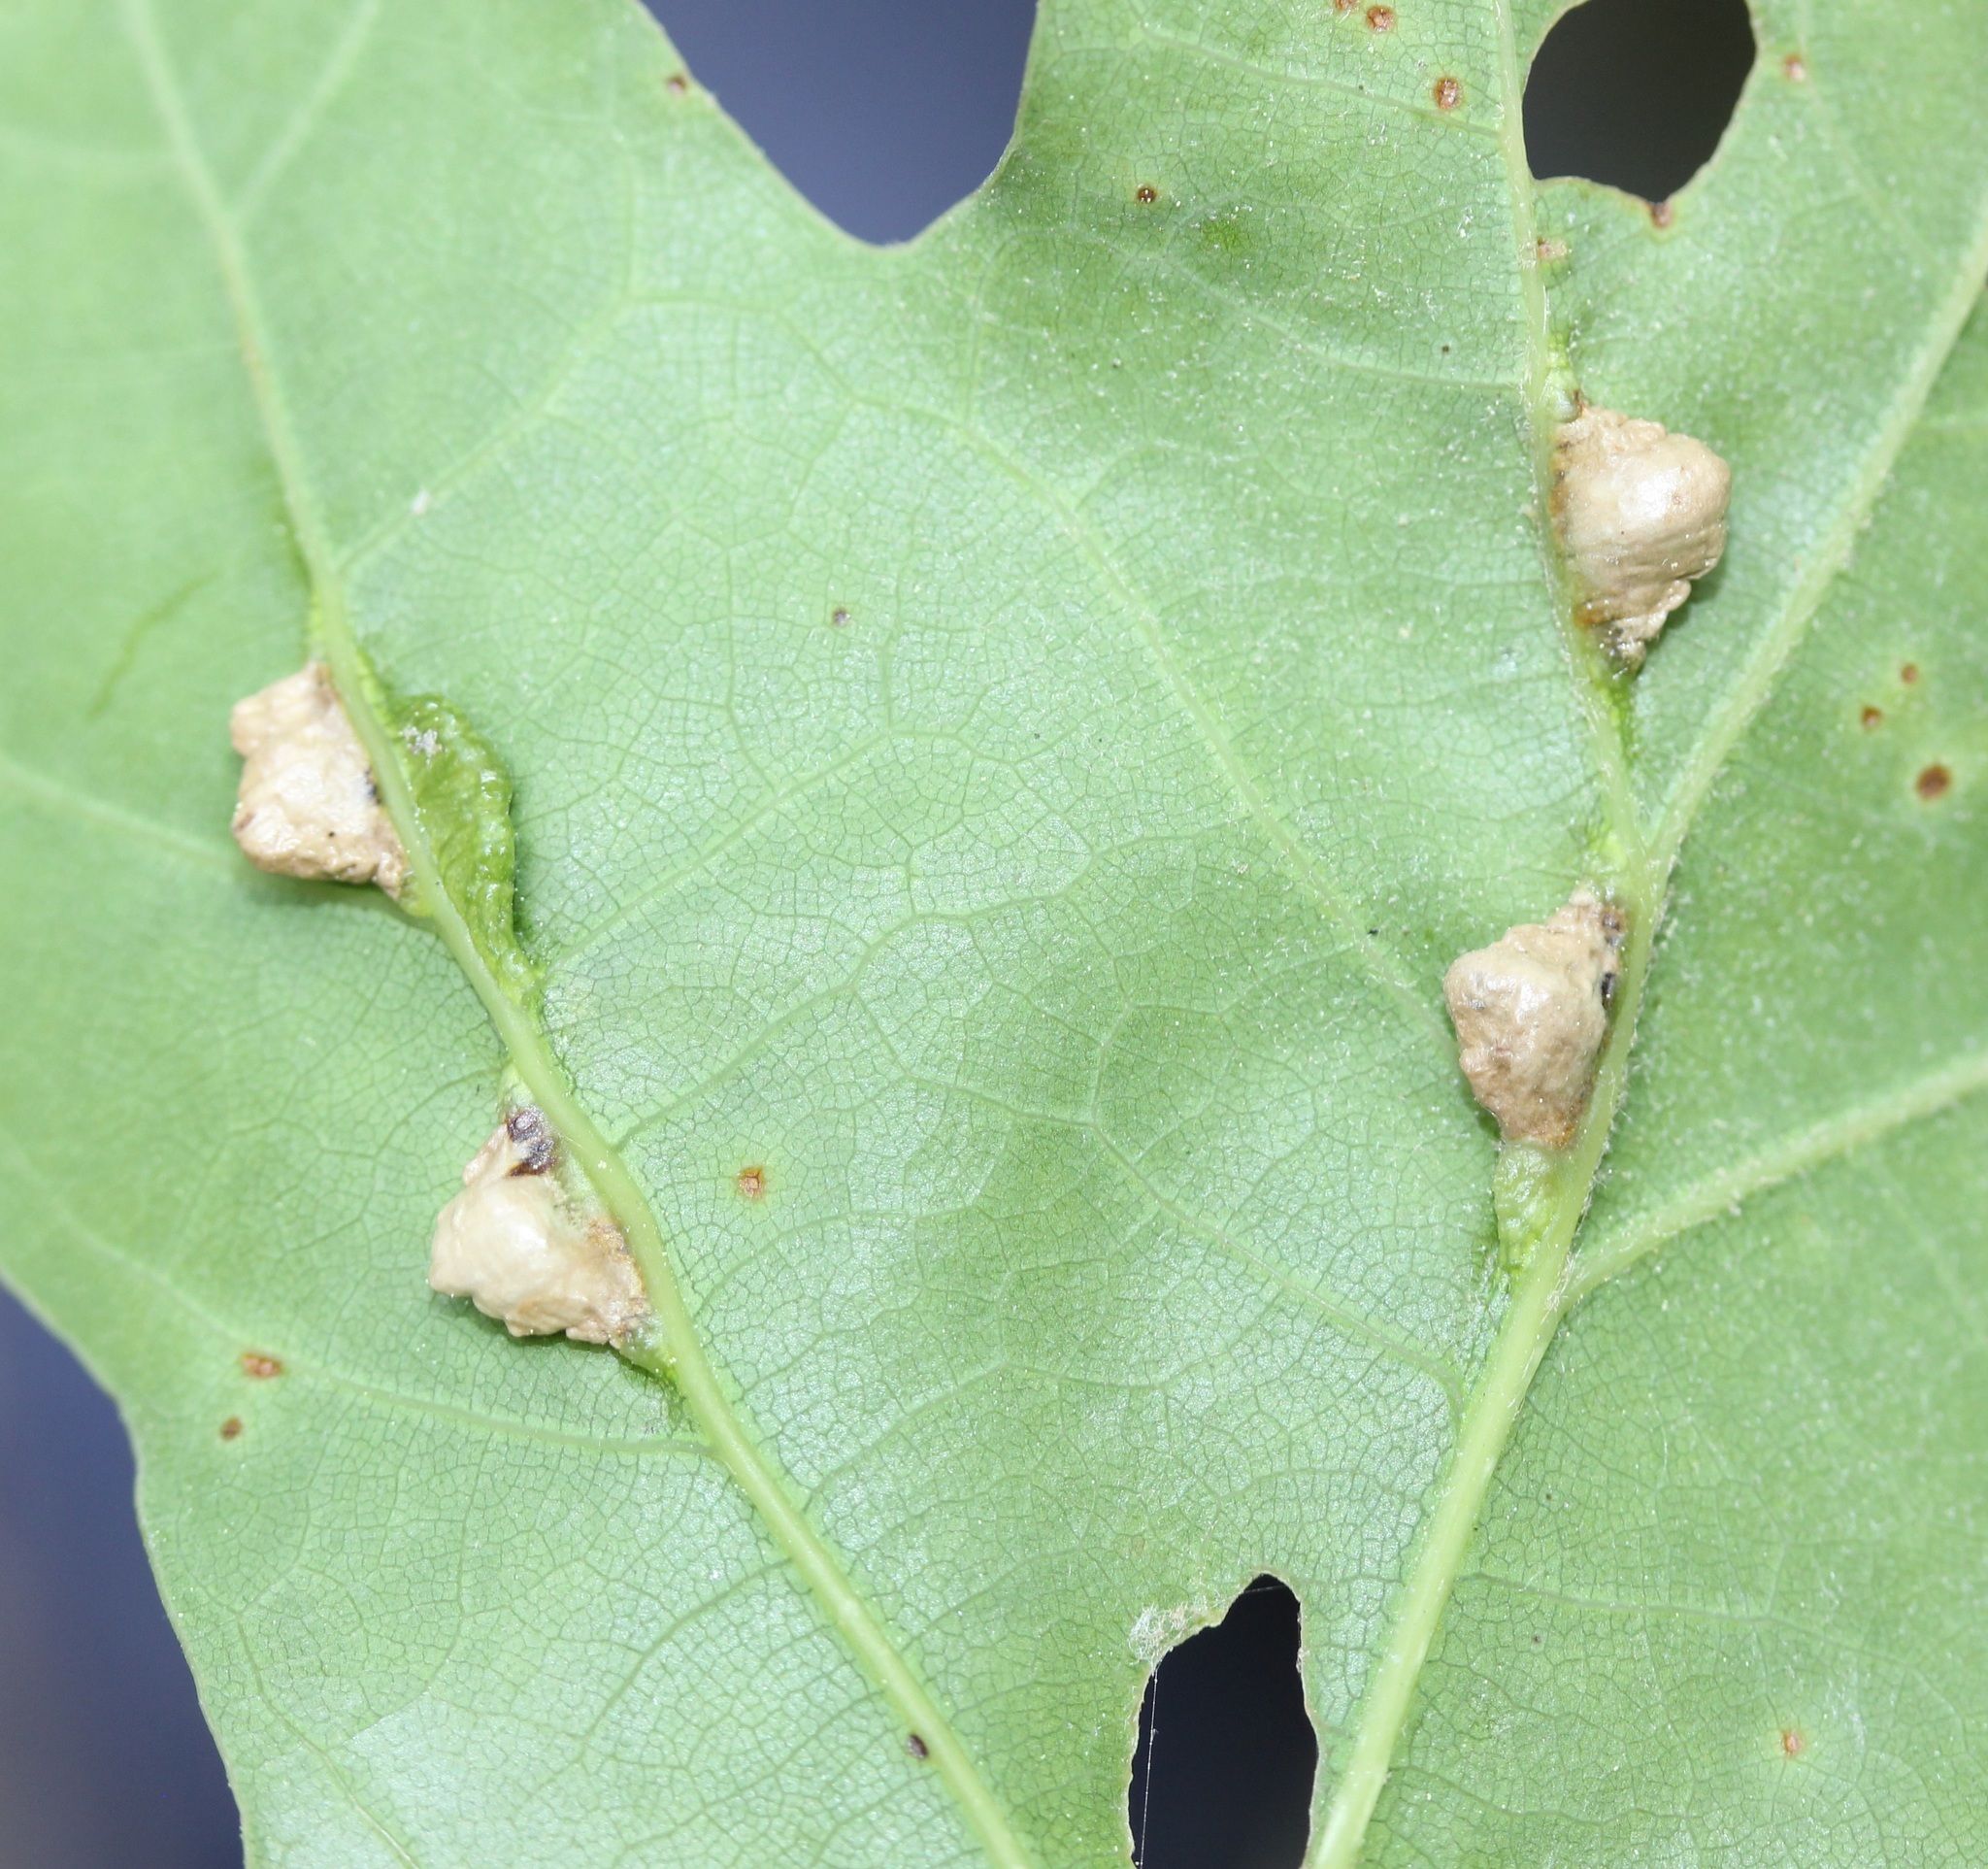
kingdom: Animalia
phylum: Arthropoda
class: Insecta
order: Diptera
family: Cecidomyiidae
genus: Macrodiplosis
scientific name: Macrodiplosis majalis
